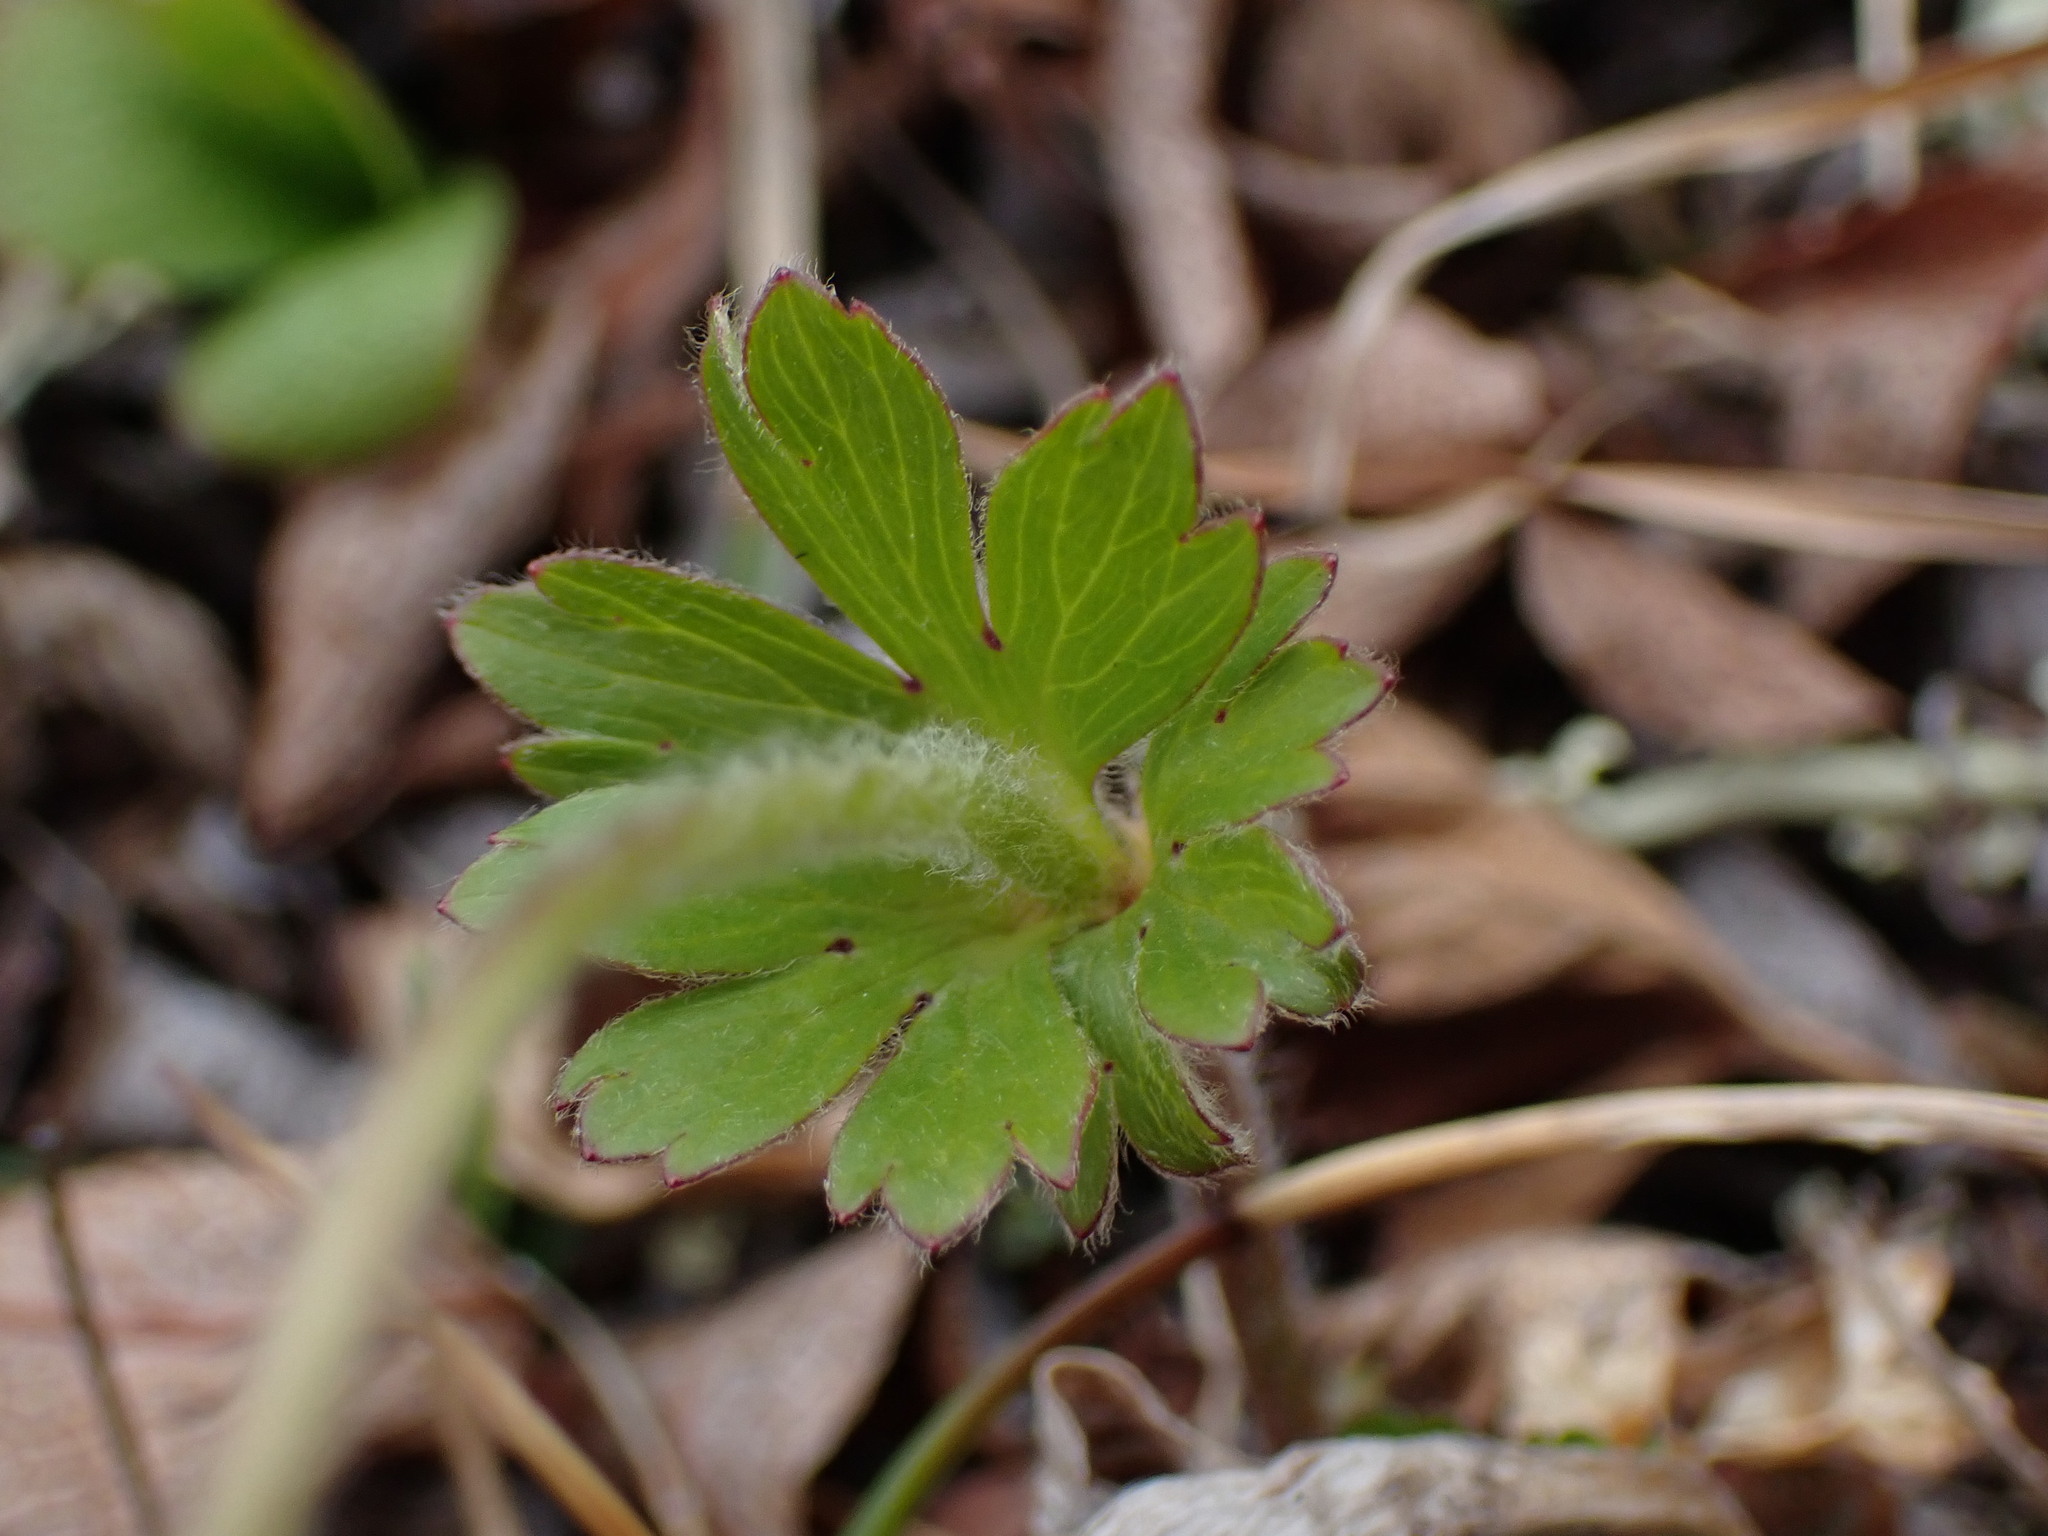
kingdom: Plantae
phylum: Tracheophyta
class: Magnoliopsida
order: Ranunculales
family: Ranunculaceae
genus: Anemone
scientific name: Anemone parviflora
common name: Northern anemone
